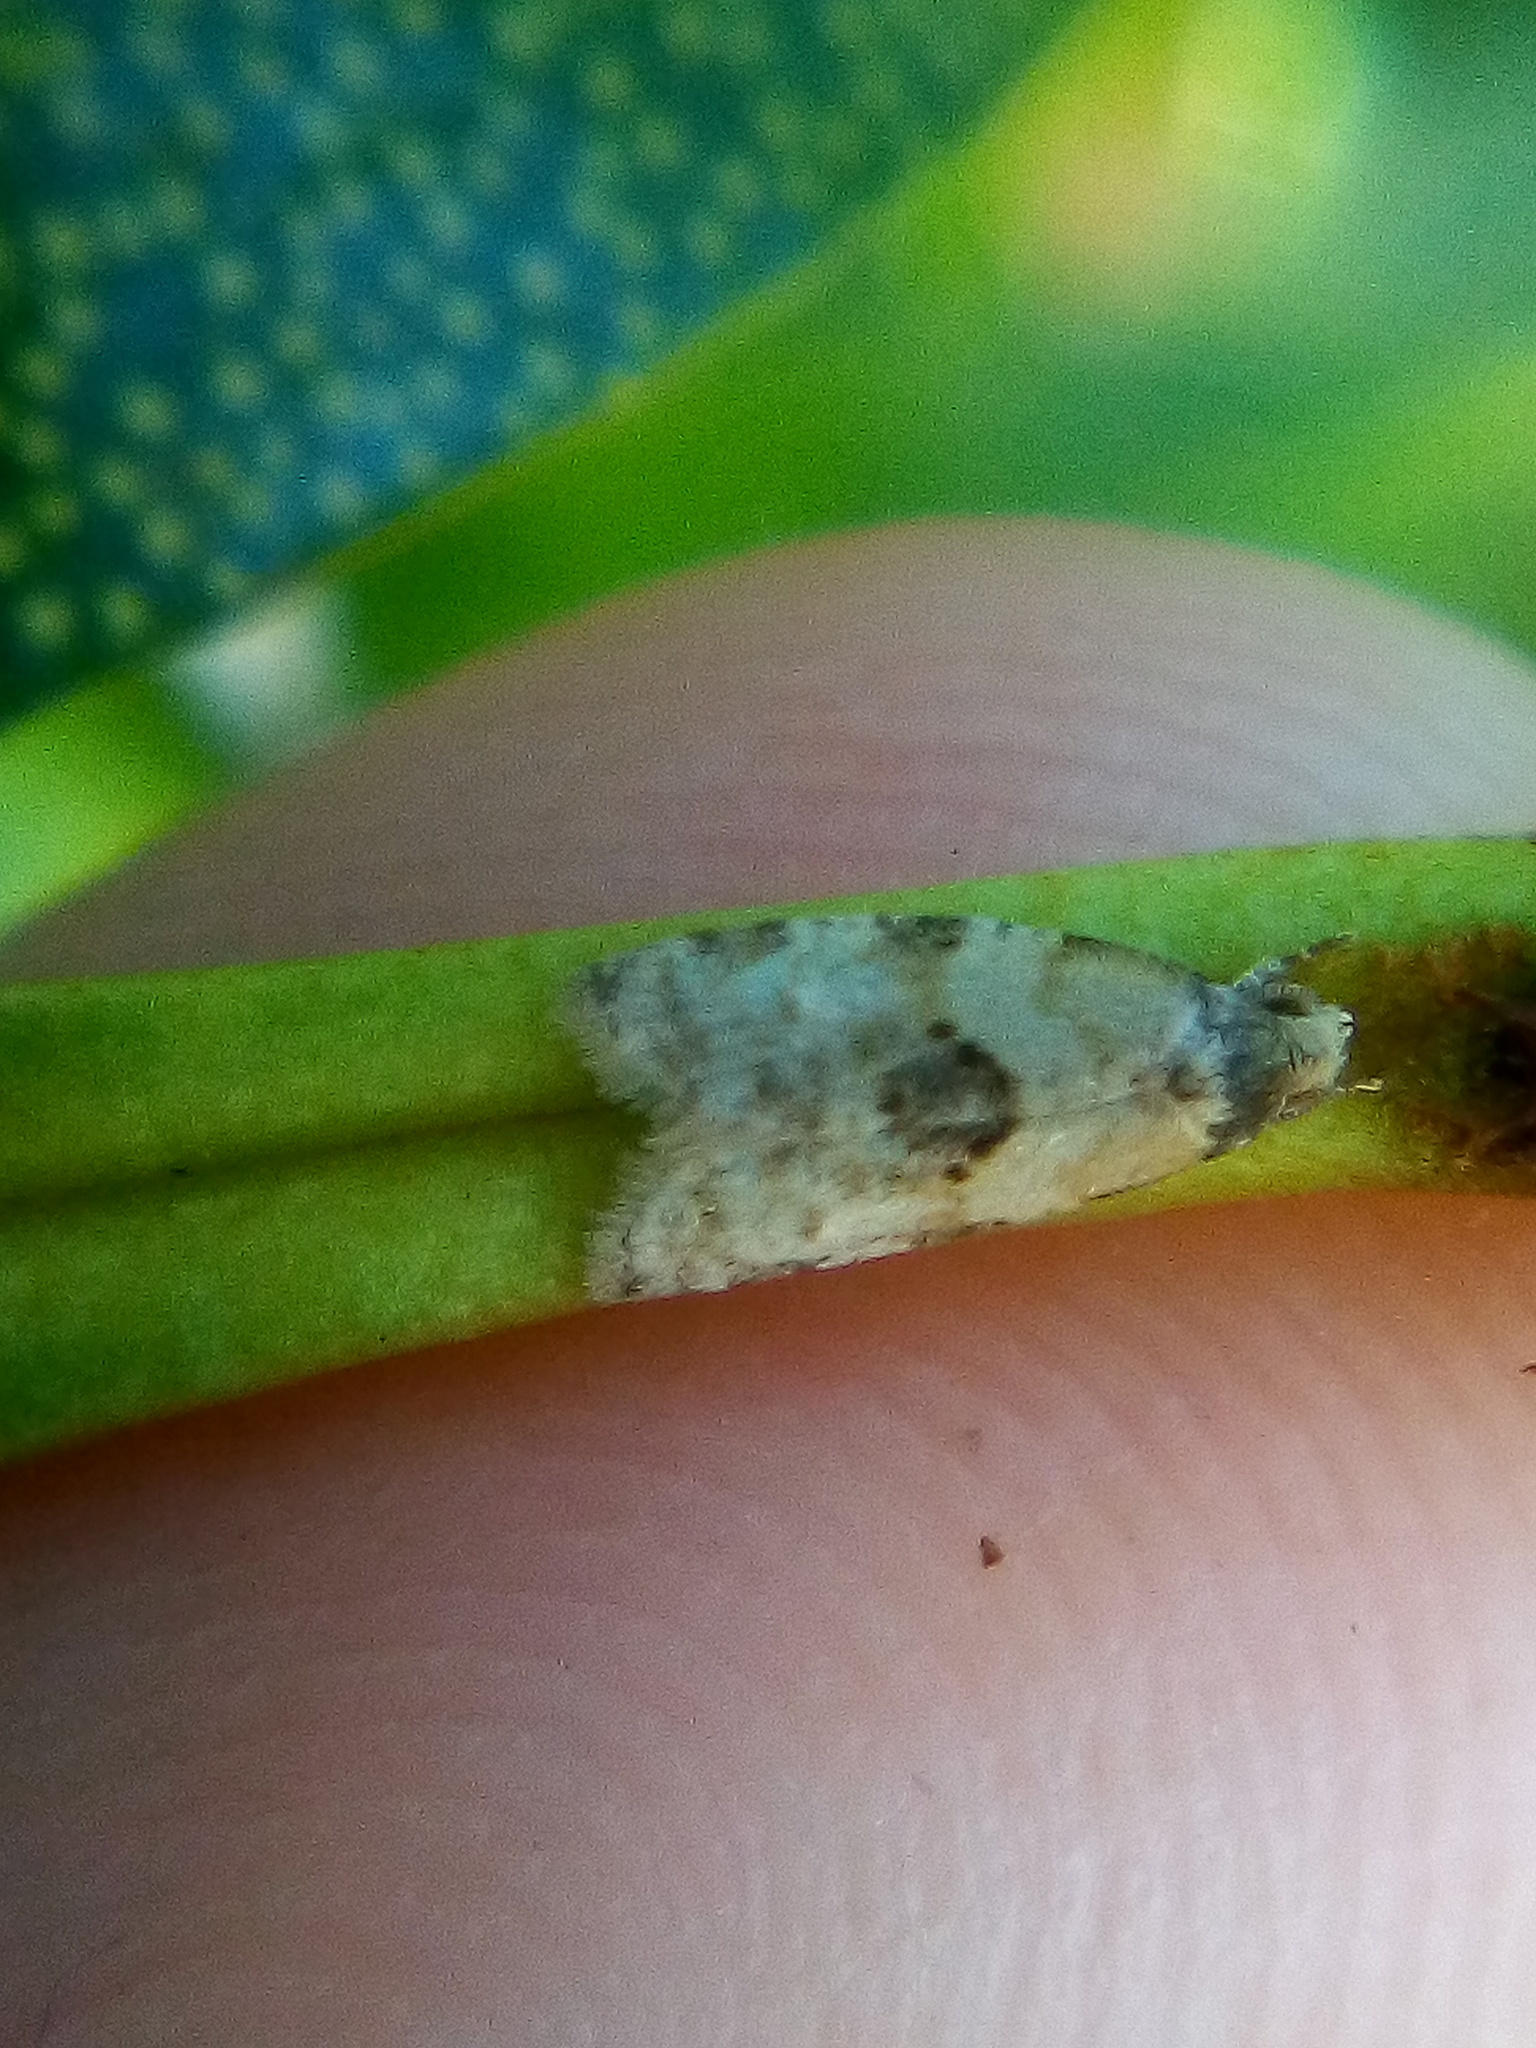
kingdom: Animalia
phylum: Arthropoda
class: Insecta
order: Lepidoptera
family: Tortricidae
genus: Dipterina
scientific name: Dipterina imbriferana
